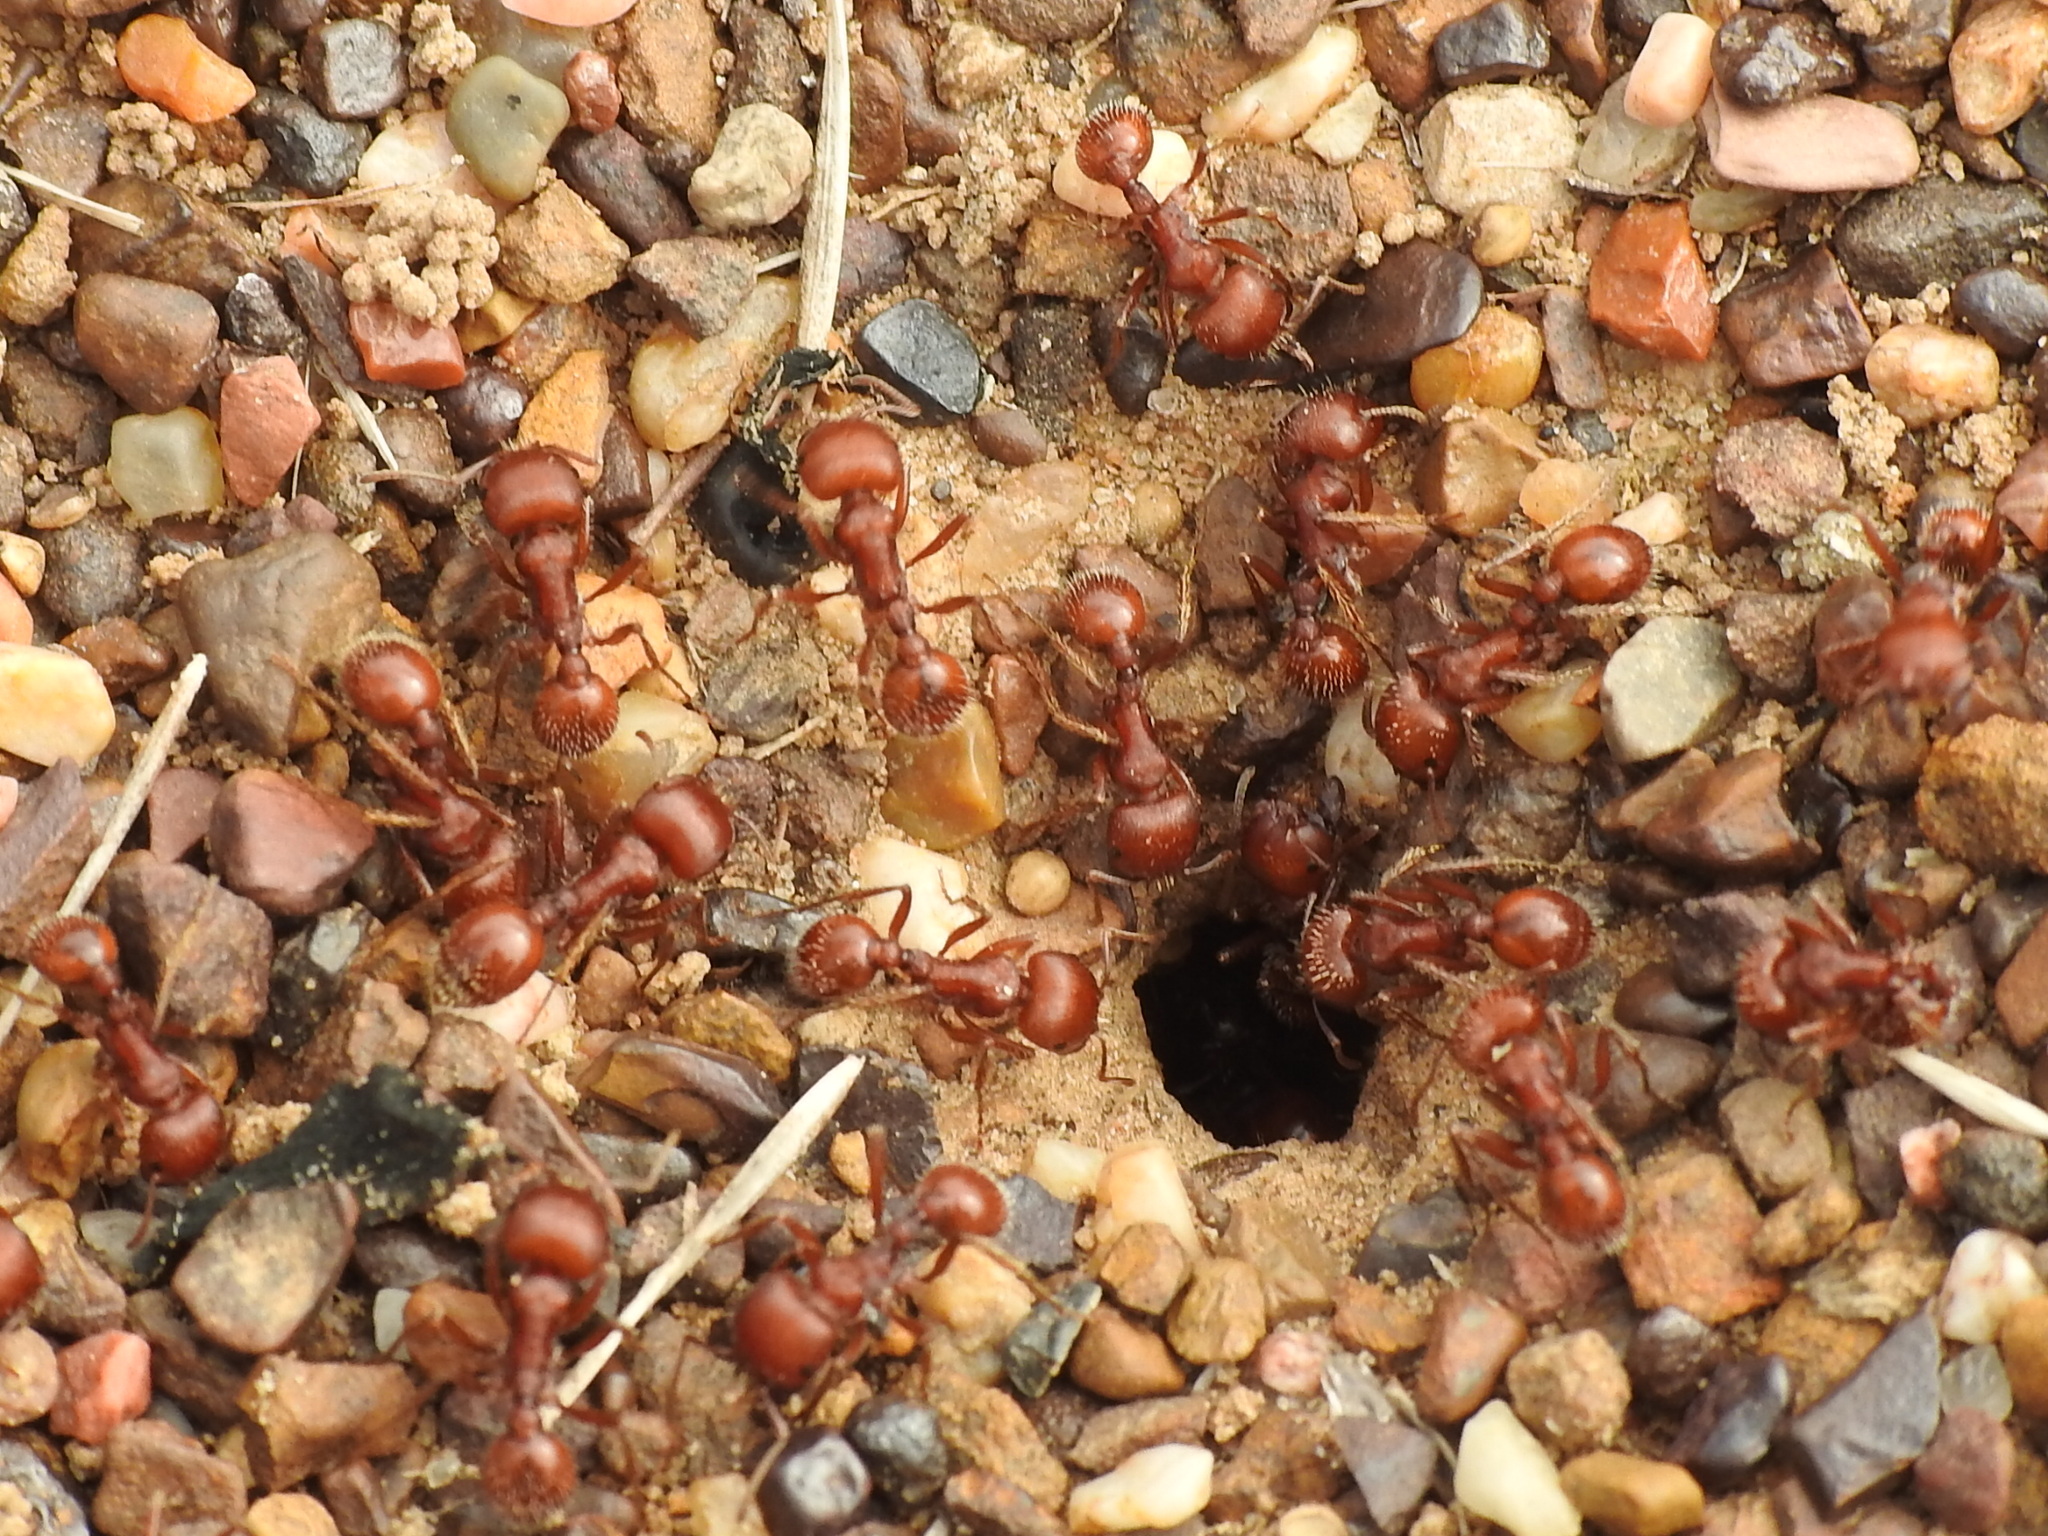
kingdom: Animalia
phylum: Arthropoda
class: Insecta
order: Hymenoptera
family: Formicidae
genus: Pogonomyrmex
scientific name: Pogonomyrmex barbatus
